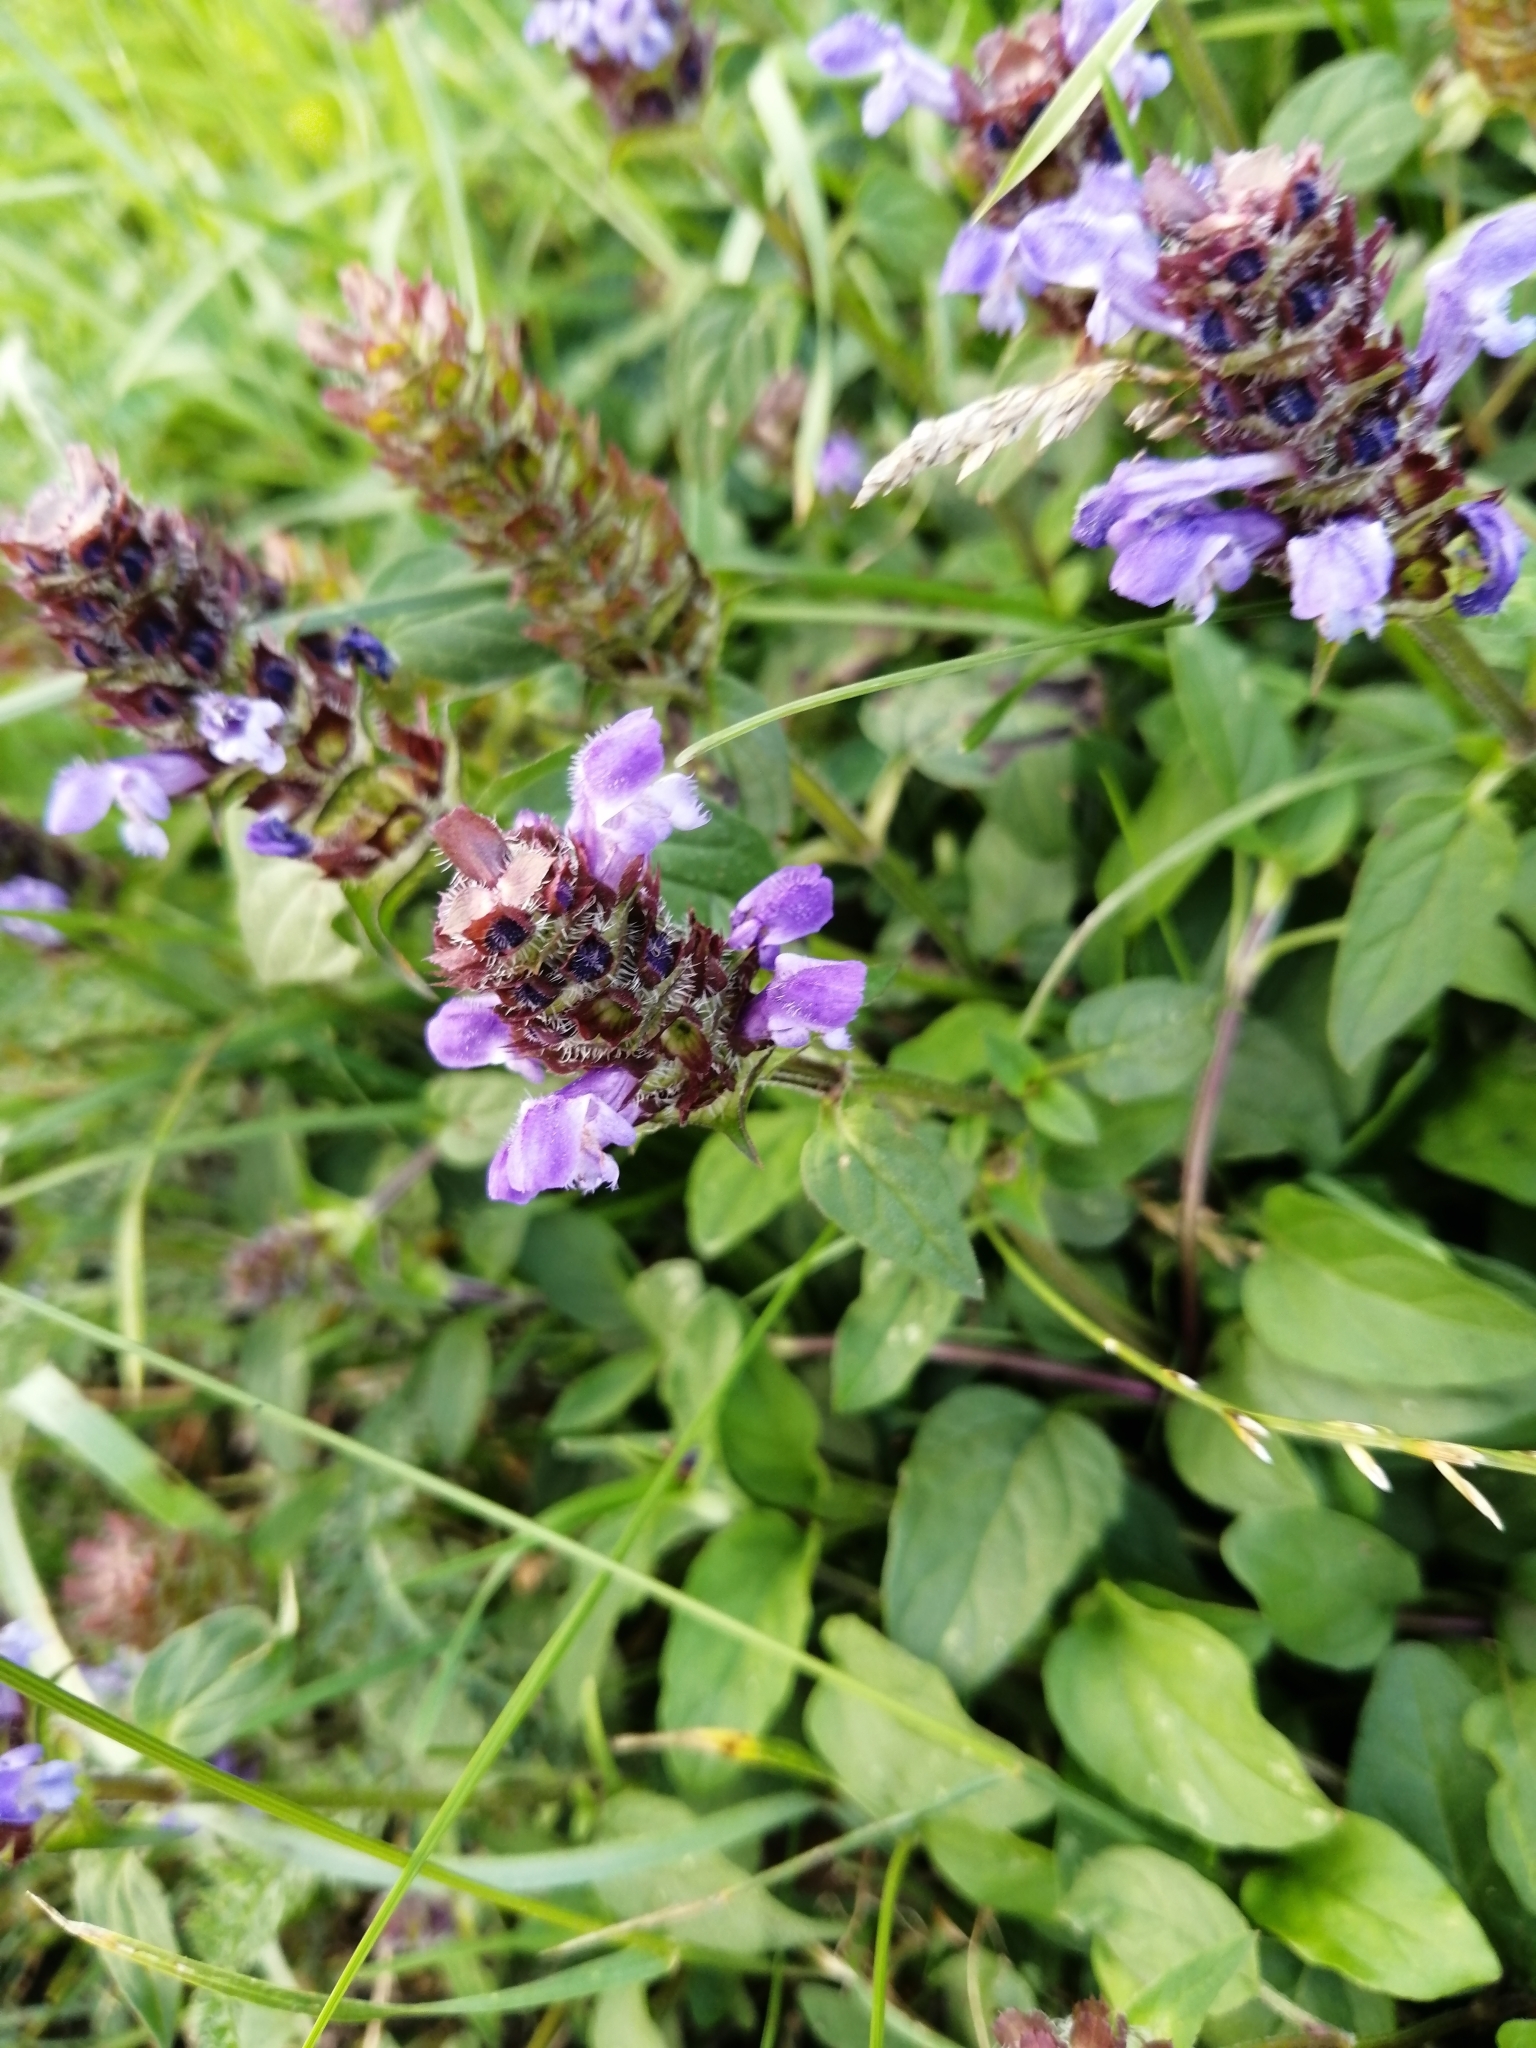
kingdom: Plantae
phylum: Tracheophyta
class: Magnoliopsida
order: Lamiales
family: Lamiaceae
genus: Prunella
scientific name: Prunella vulgaris
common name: Heal-all
